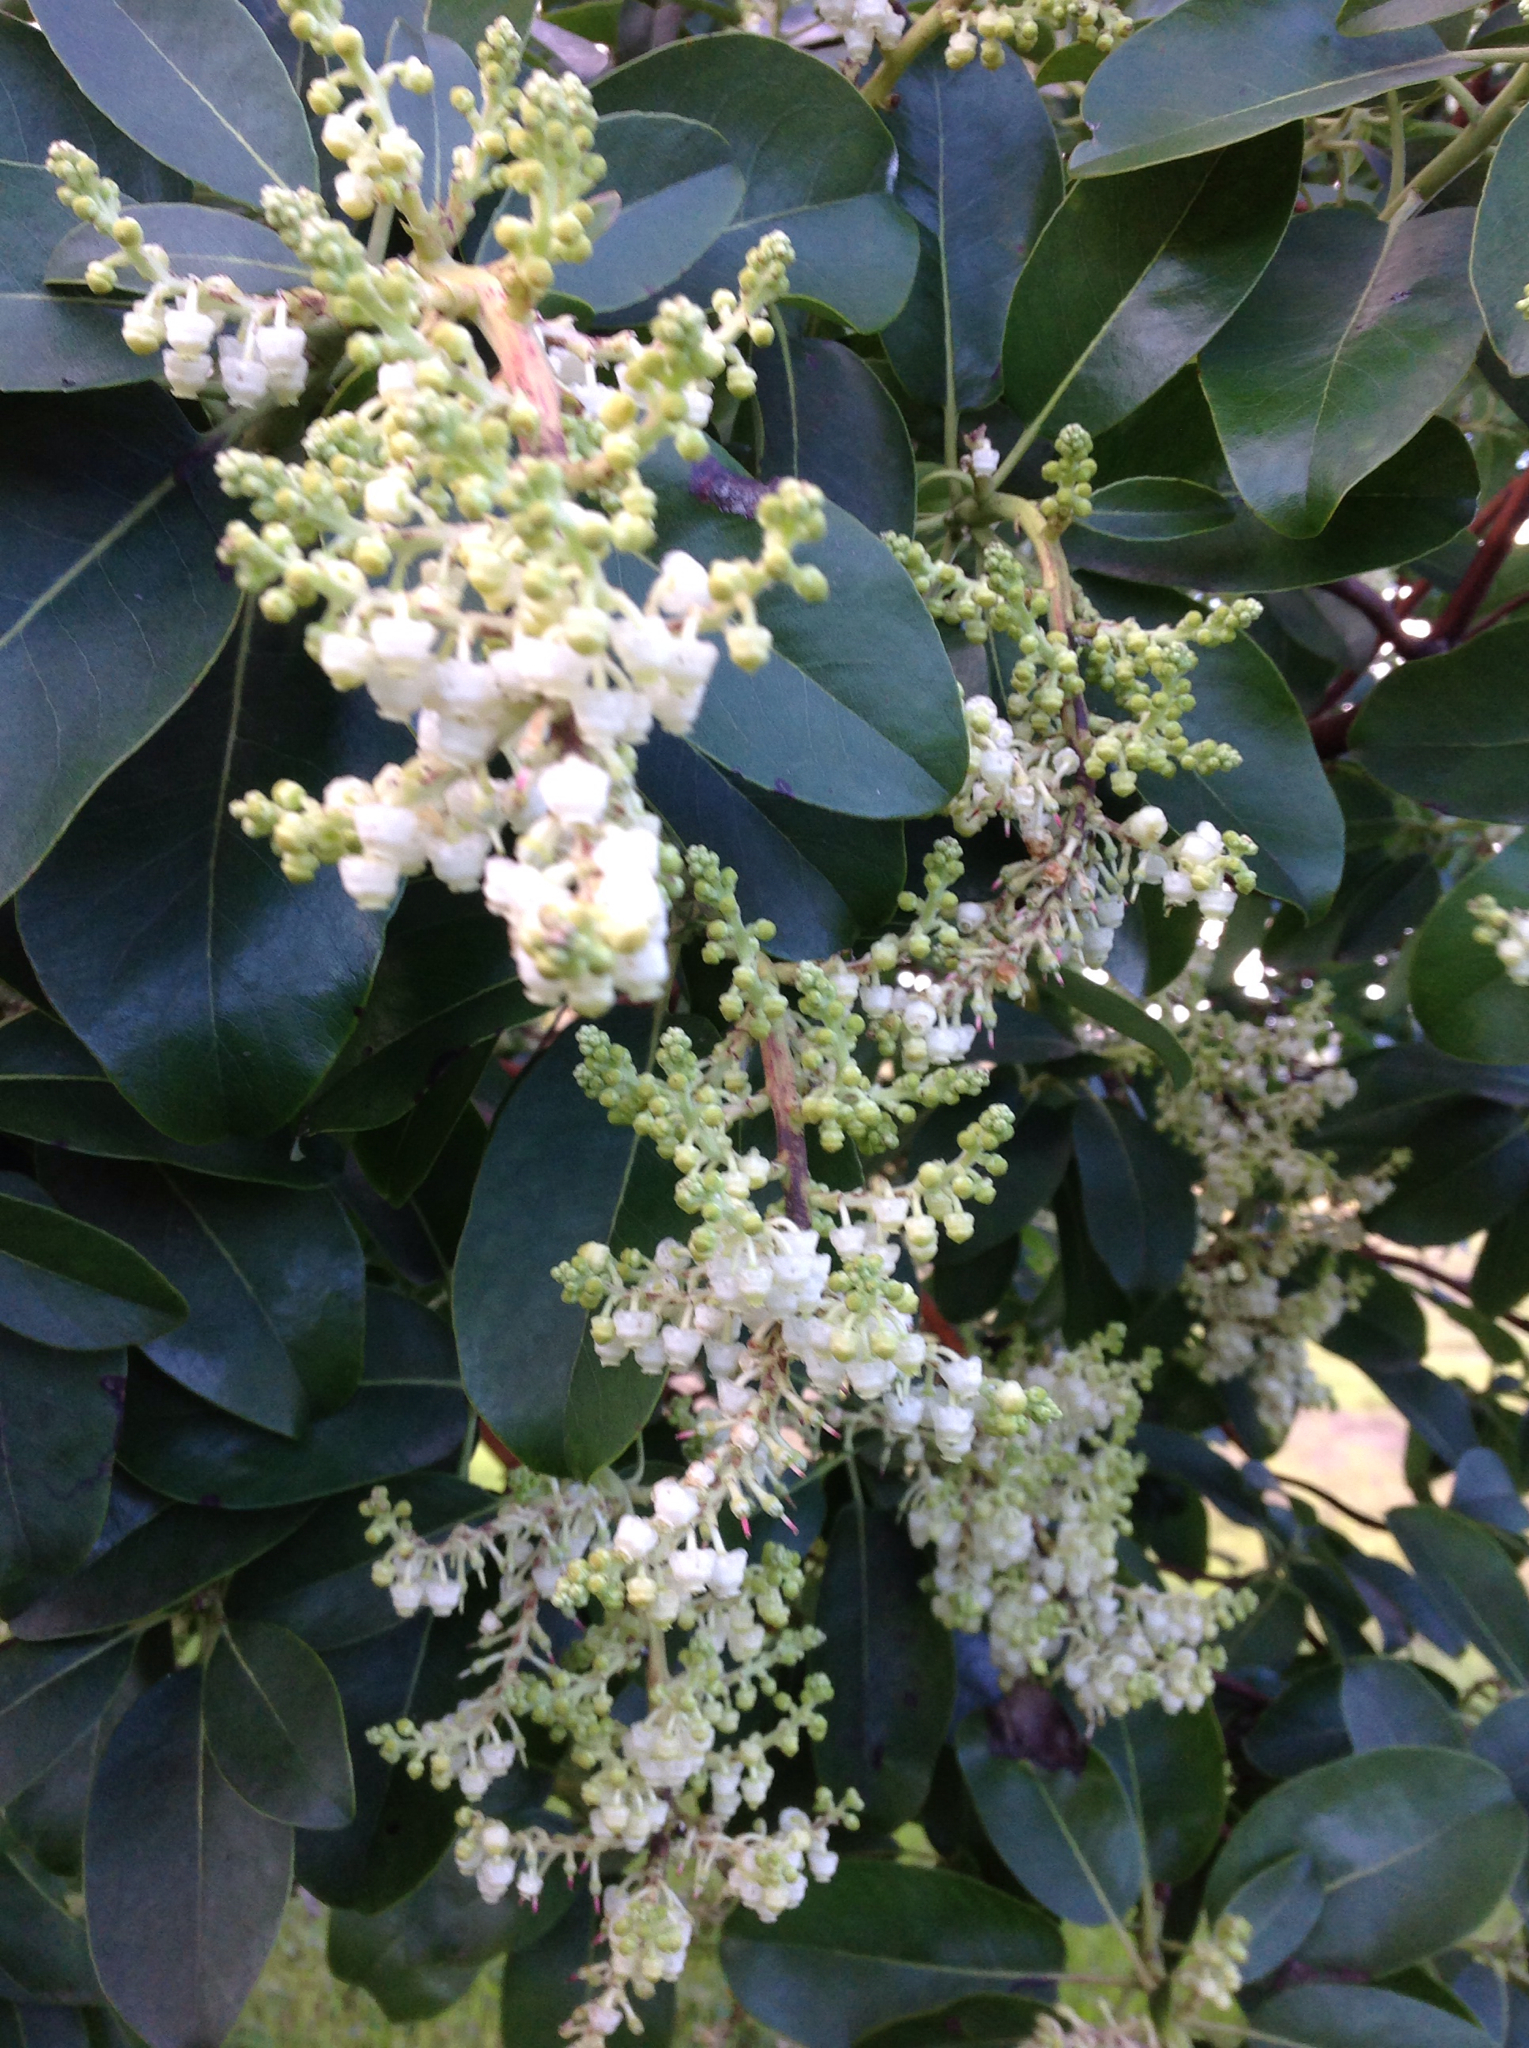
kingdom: Plantae
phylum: Tracheophyta
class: Magnoliopsida
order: Ericales
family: Ericaceae
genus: Arbutus
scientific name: Arbutus menziesii
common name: Pacific madrone
